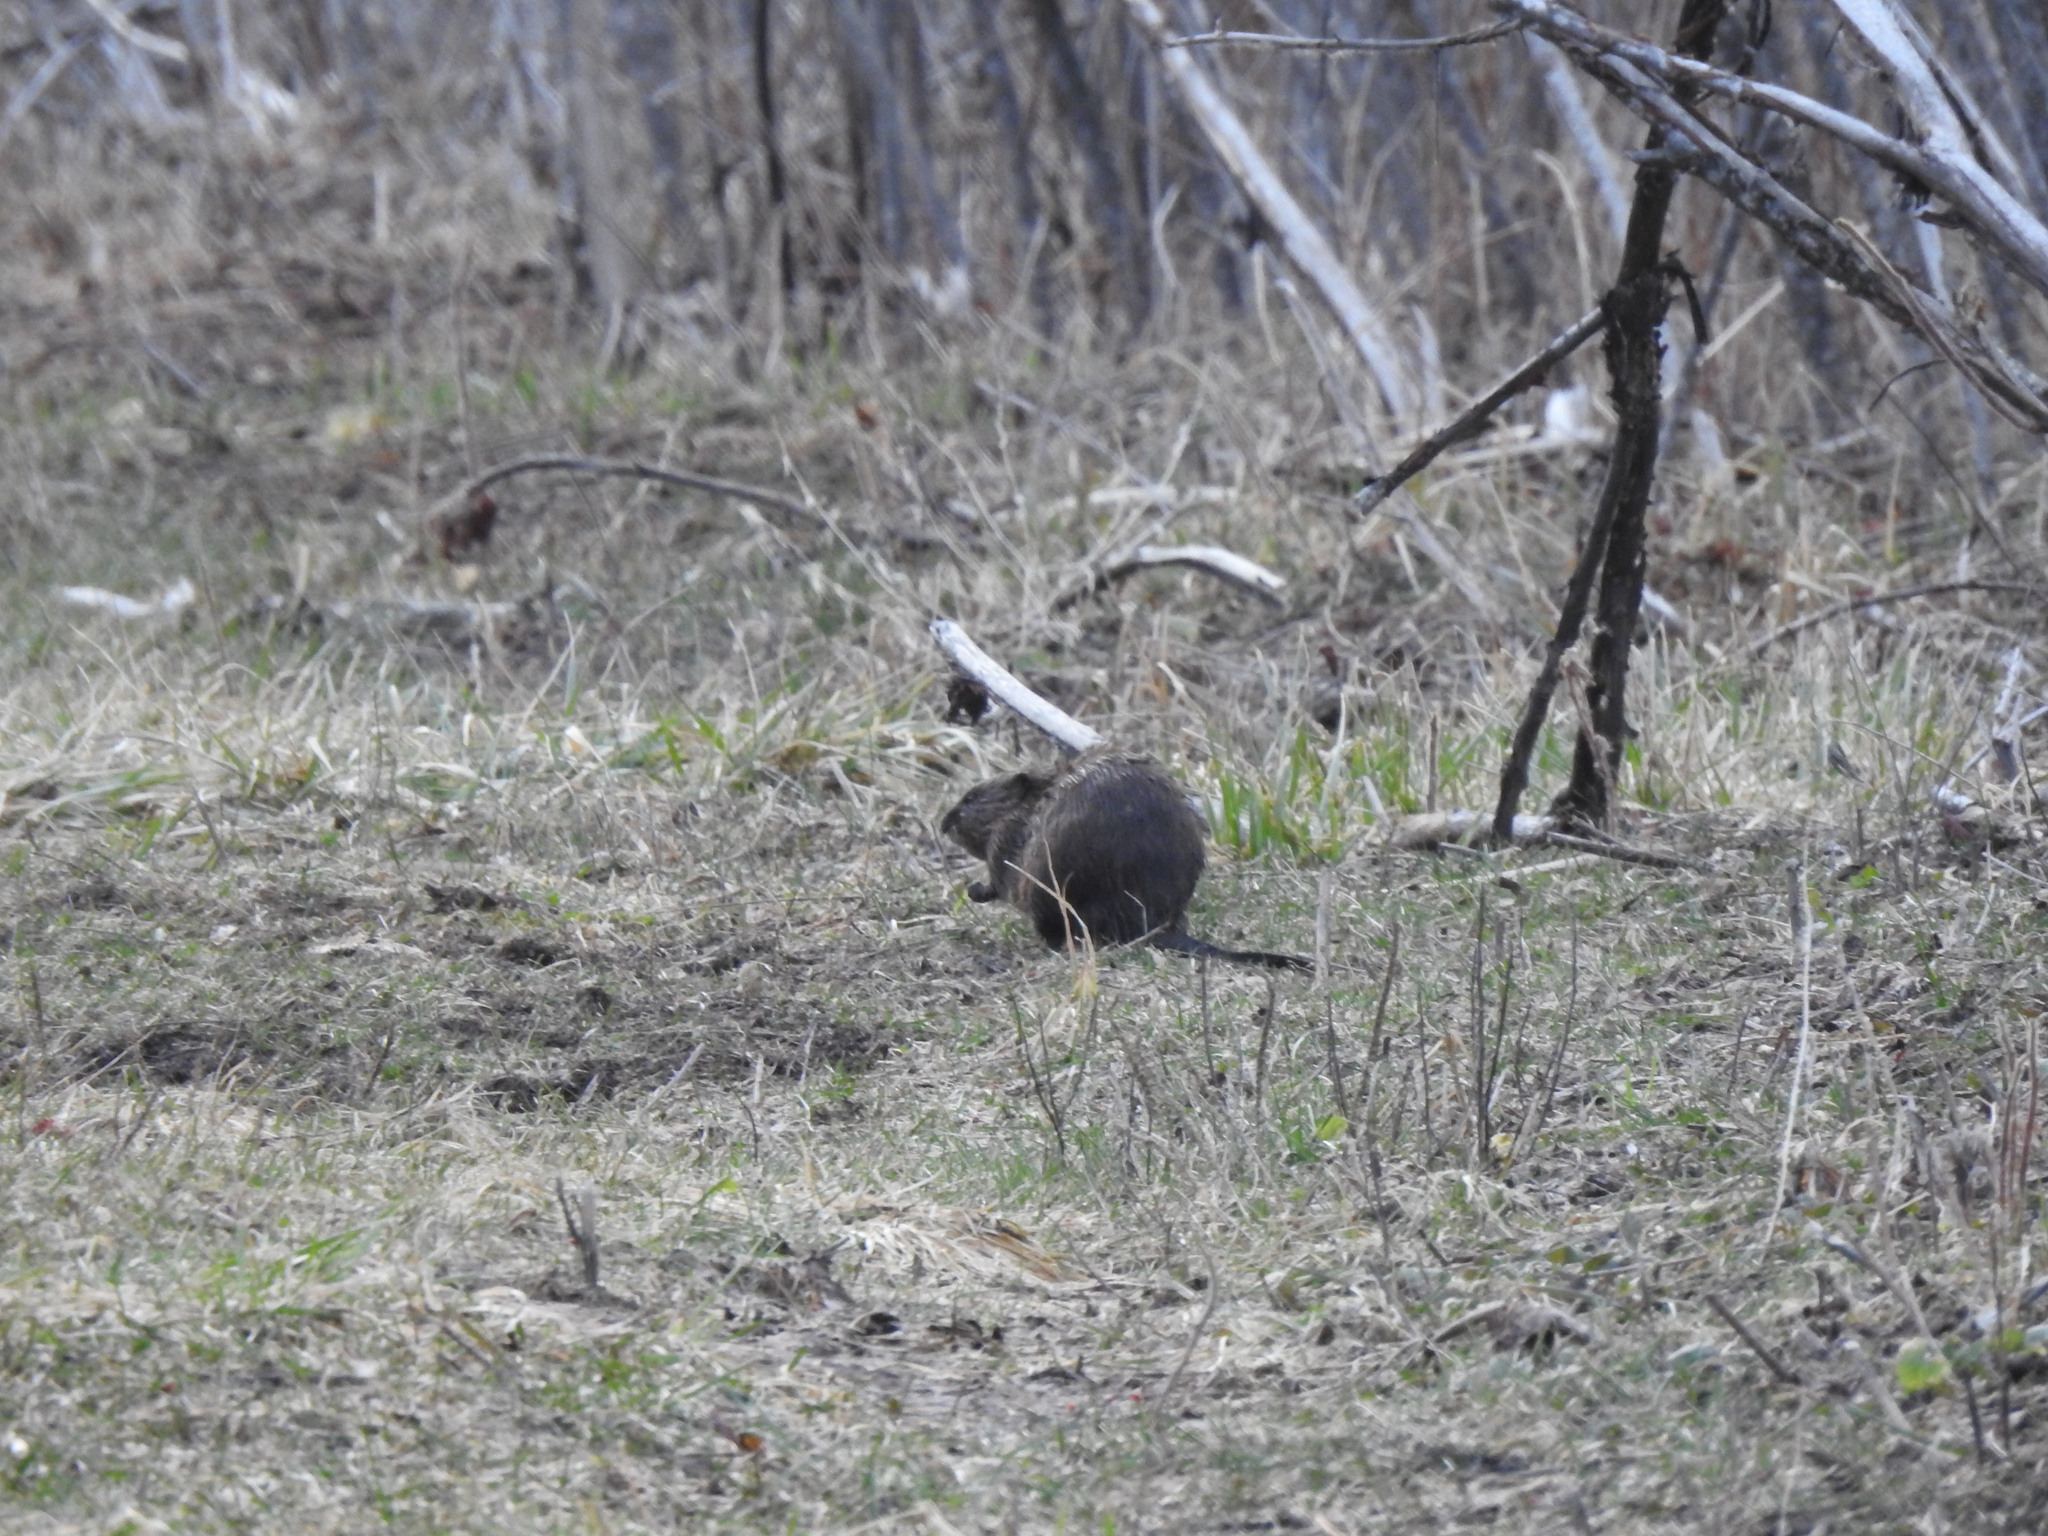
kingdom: Animalia
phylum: Chordata
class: Mammalia
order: Rodentia
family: Cricetidae
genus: Ondatra
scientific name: Ondatra zibethicus
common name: Muskrat
